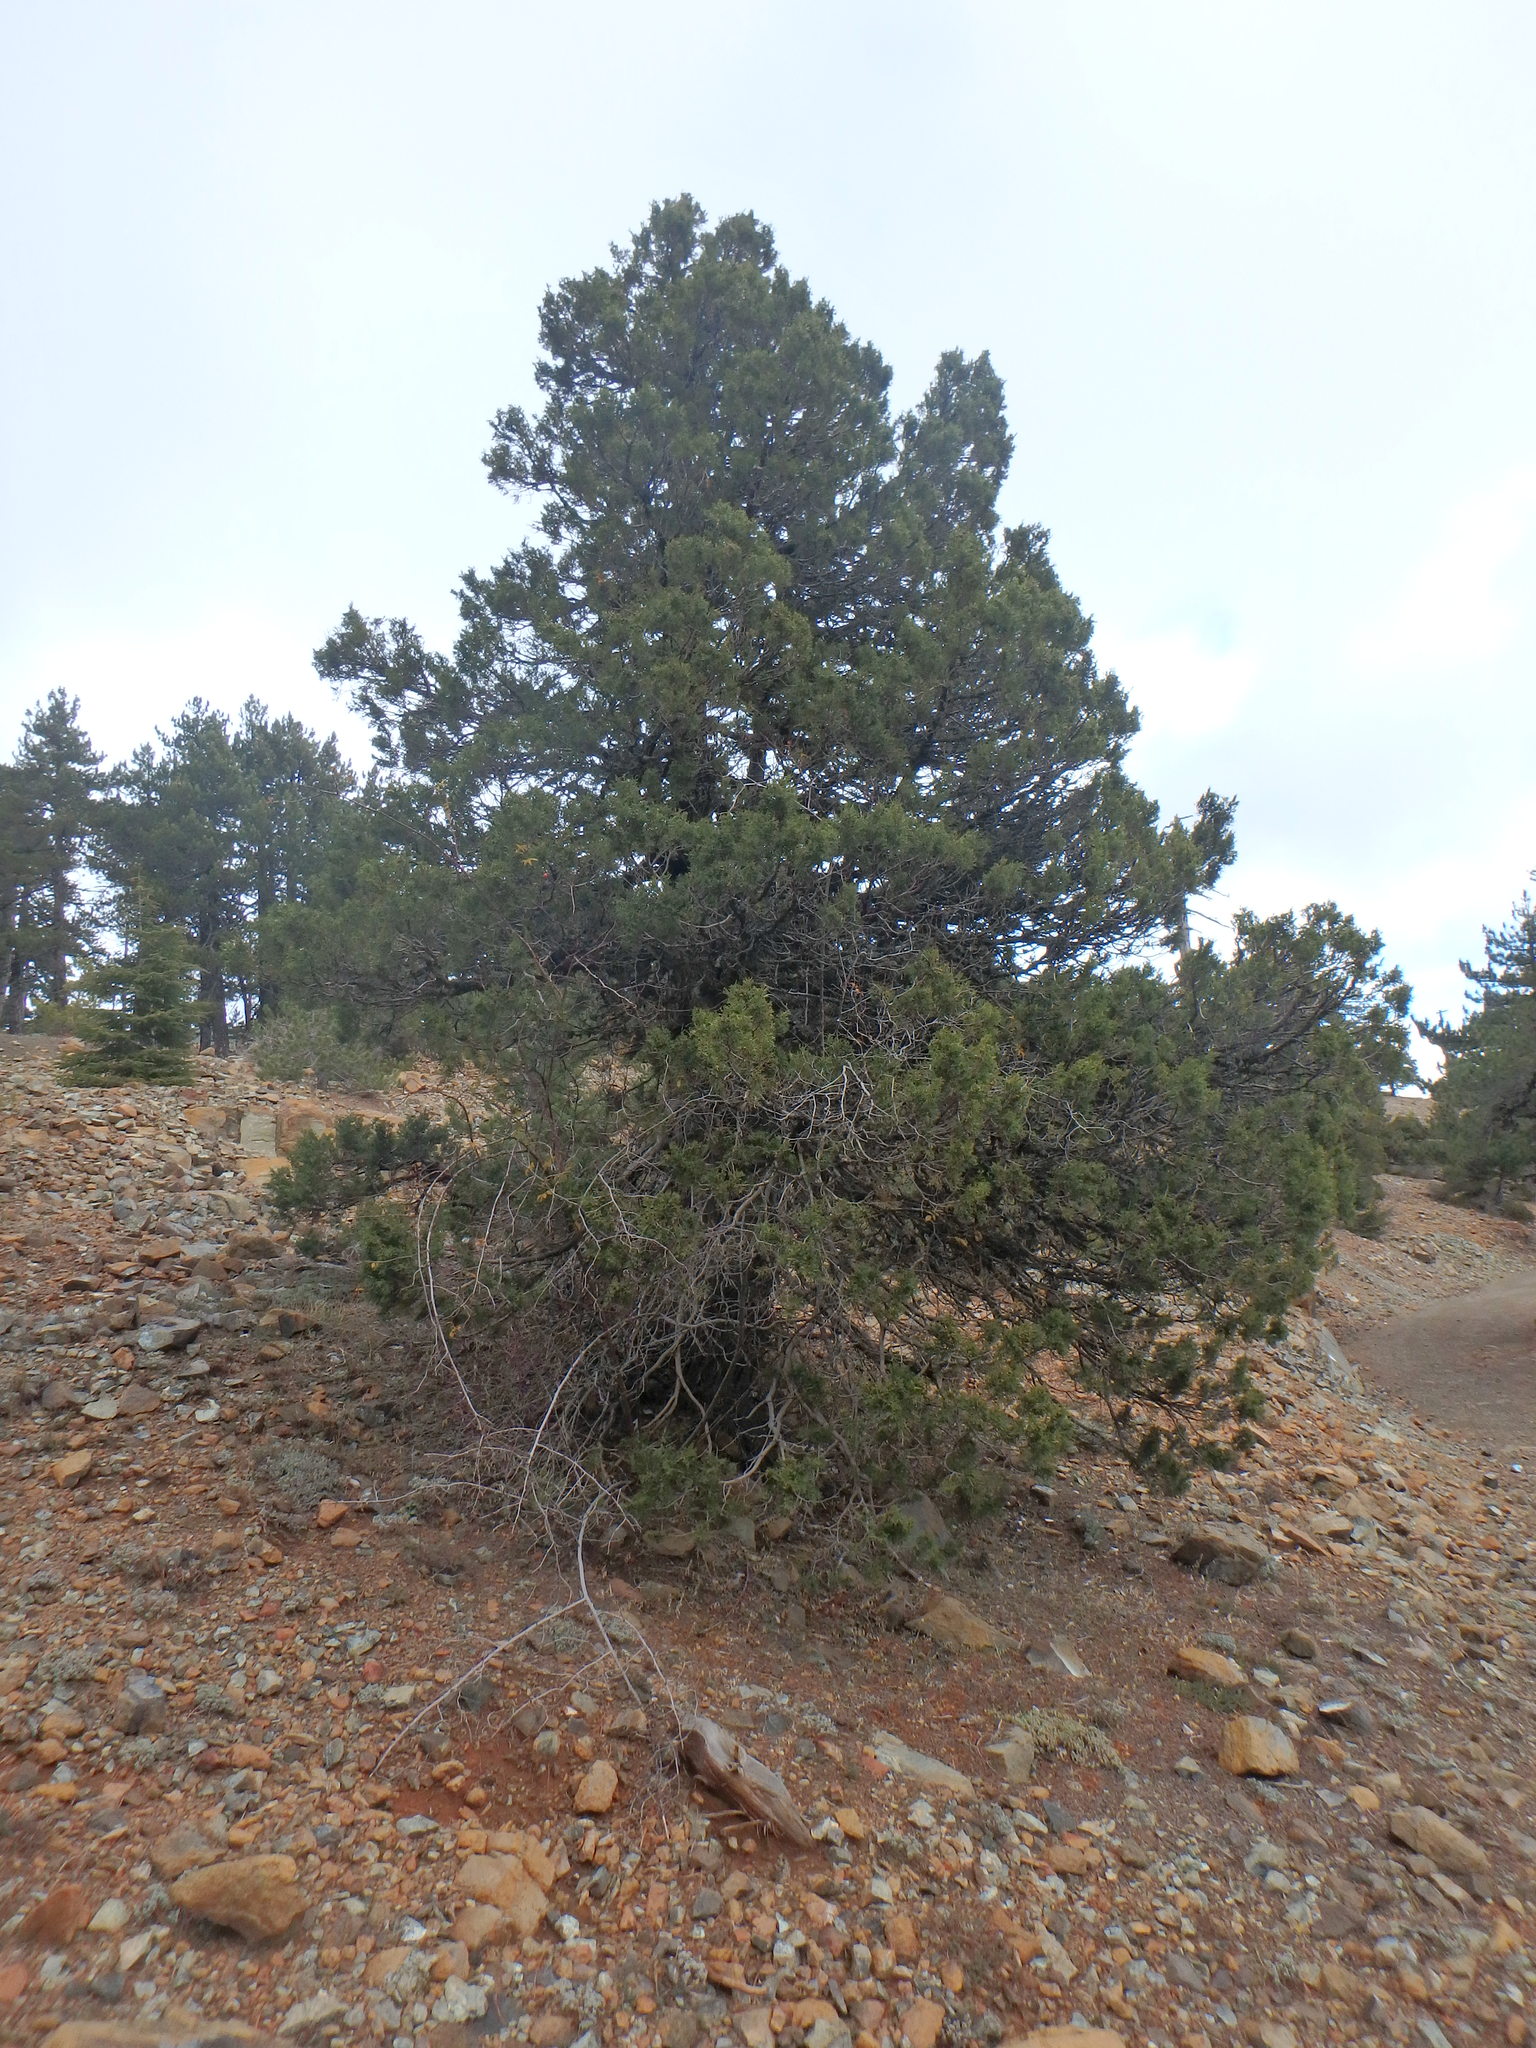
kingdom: Plantae
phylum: Tracheophyta
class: Pinopsida
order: Pinales
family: Cupressaceae
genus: Juniperus
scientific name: Juniperus foetidissima
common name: Stinking juniper
